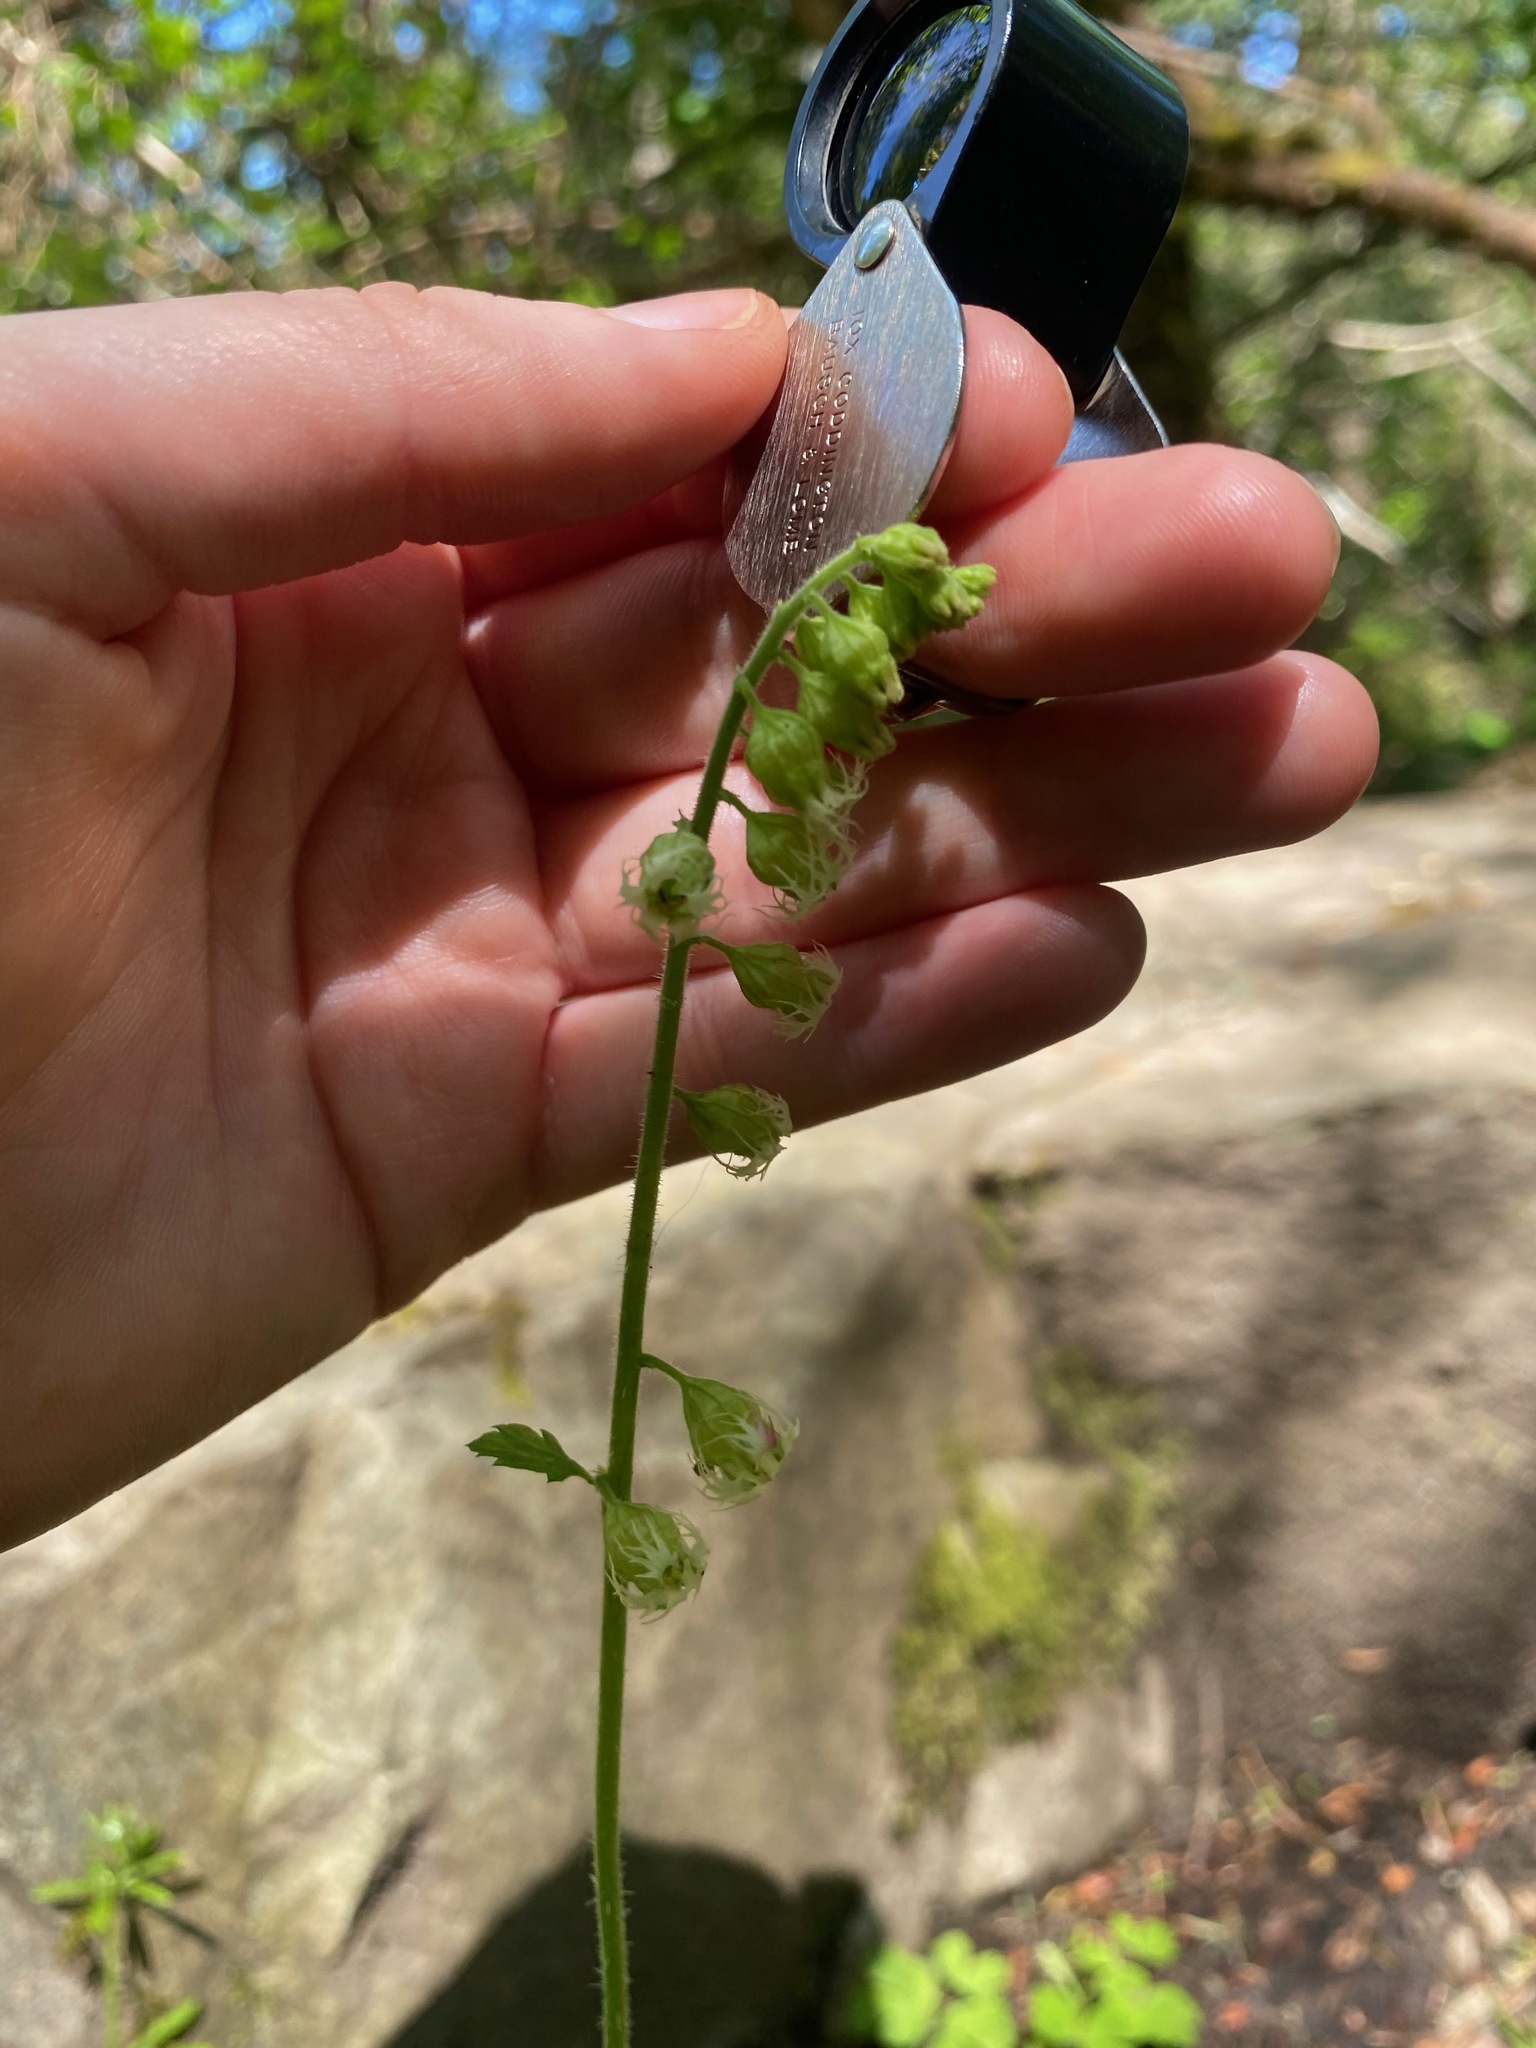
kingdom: Plantae
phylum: Tracheophyta
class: Magnoliopsida
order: Saxifragales
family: Saxifragaceae
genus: Tellima
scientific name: Tellima grandiflora
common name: Fringecups
